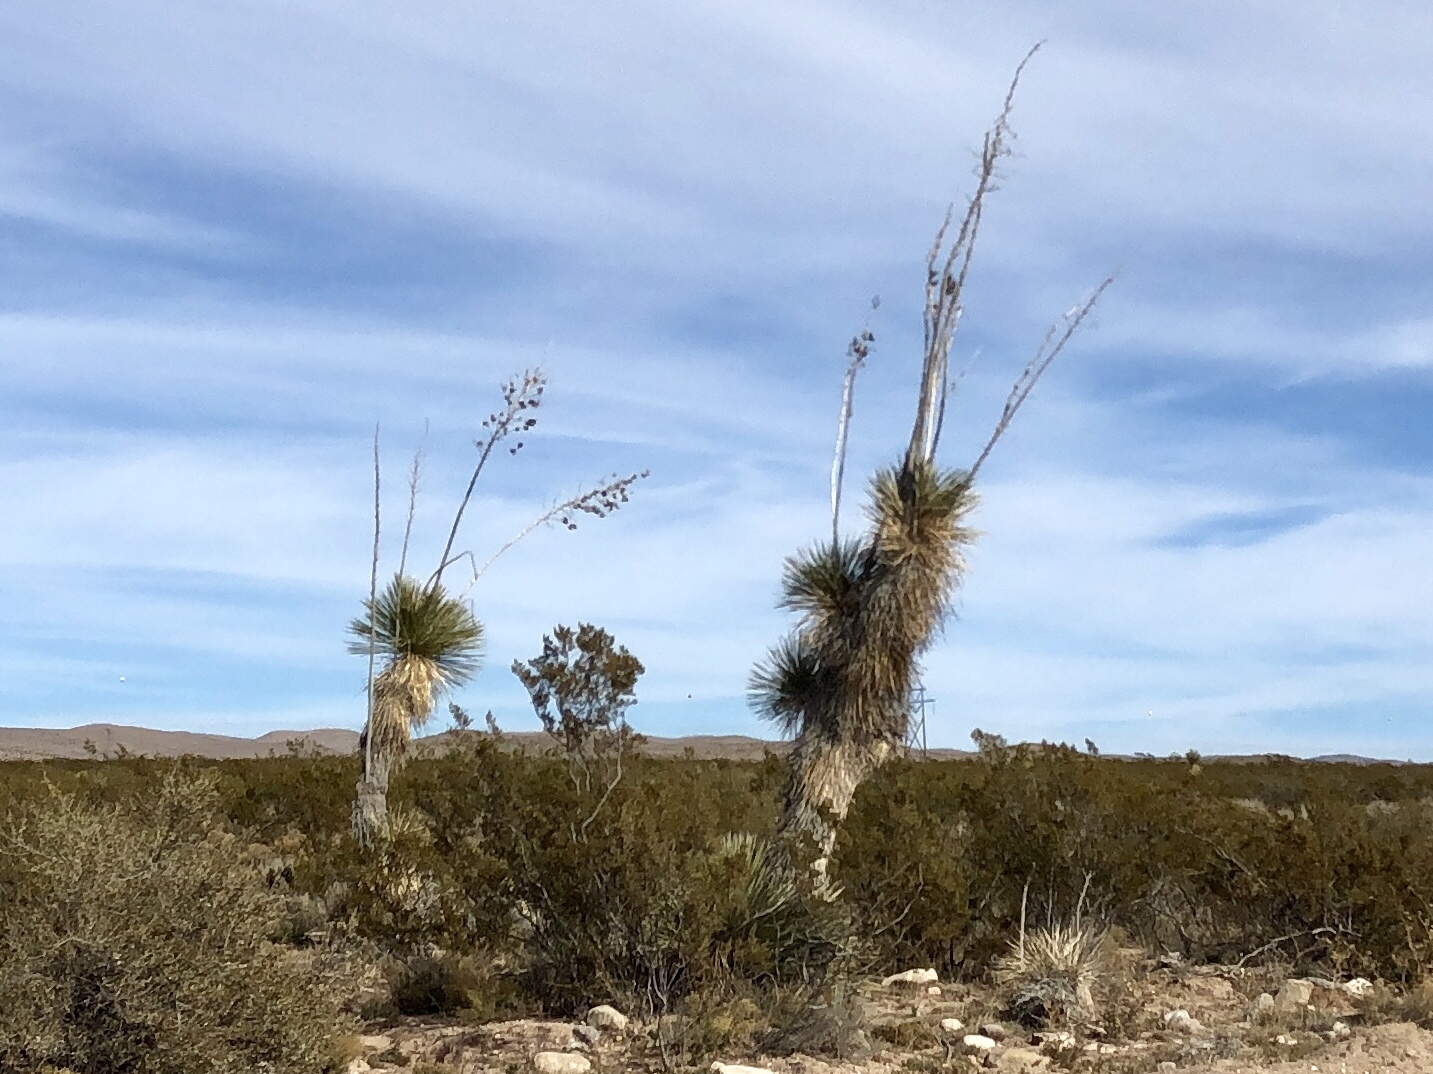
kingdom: Plantae
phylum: Tracheophyta
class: Liliopsida
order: Asparagales
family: Asparagaceae
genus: Yucca
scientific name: Yucca elata
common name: Palmella
